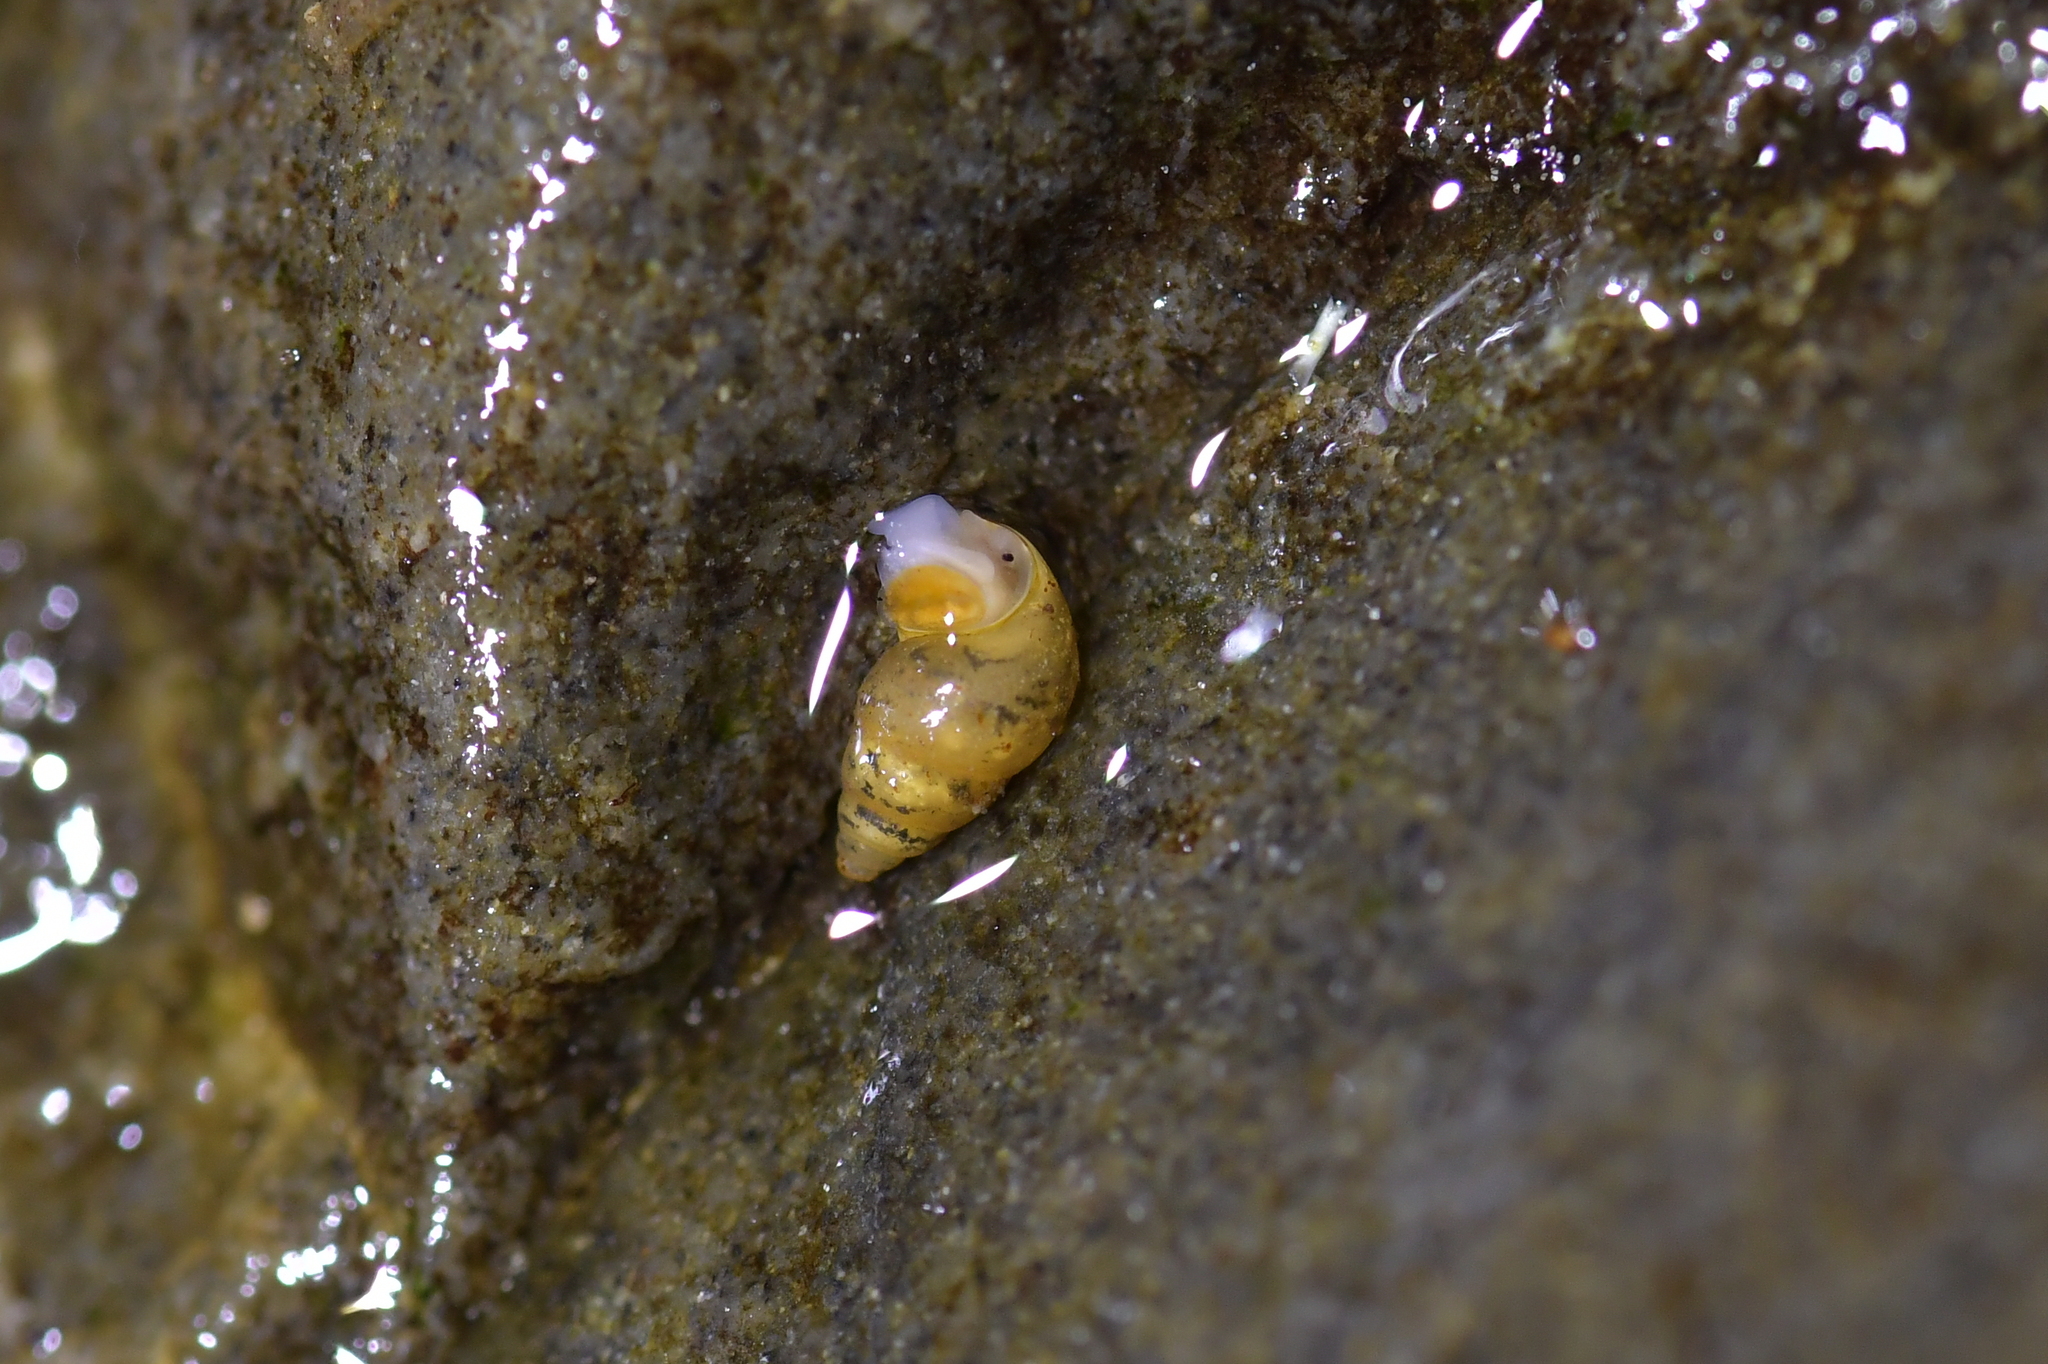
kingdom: Animalia
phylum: Mollusca
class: Gastropoda
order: Littorinimorpha
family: Tateidae
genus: Potamopyrgus
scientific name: Potamopyrgus antipodarum
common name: Jenkins' spire snail
